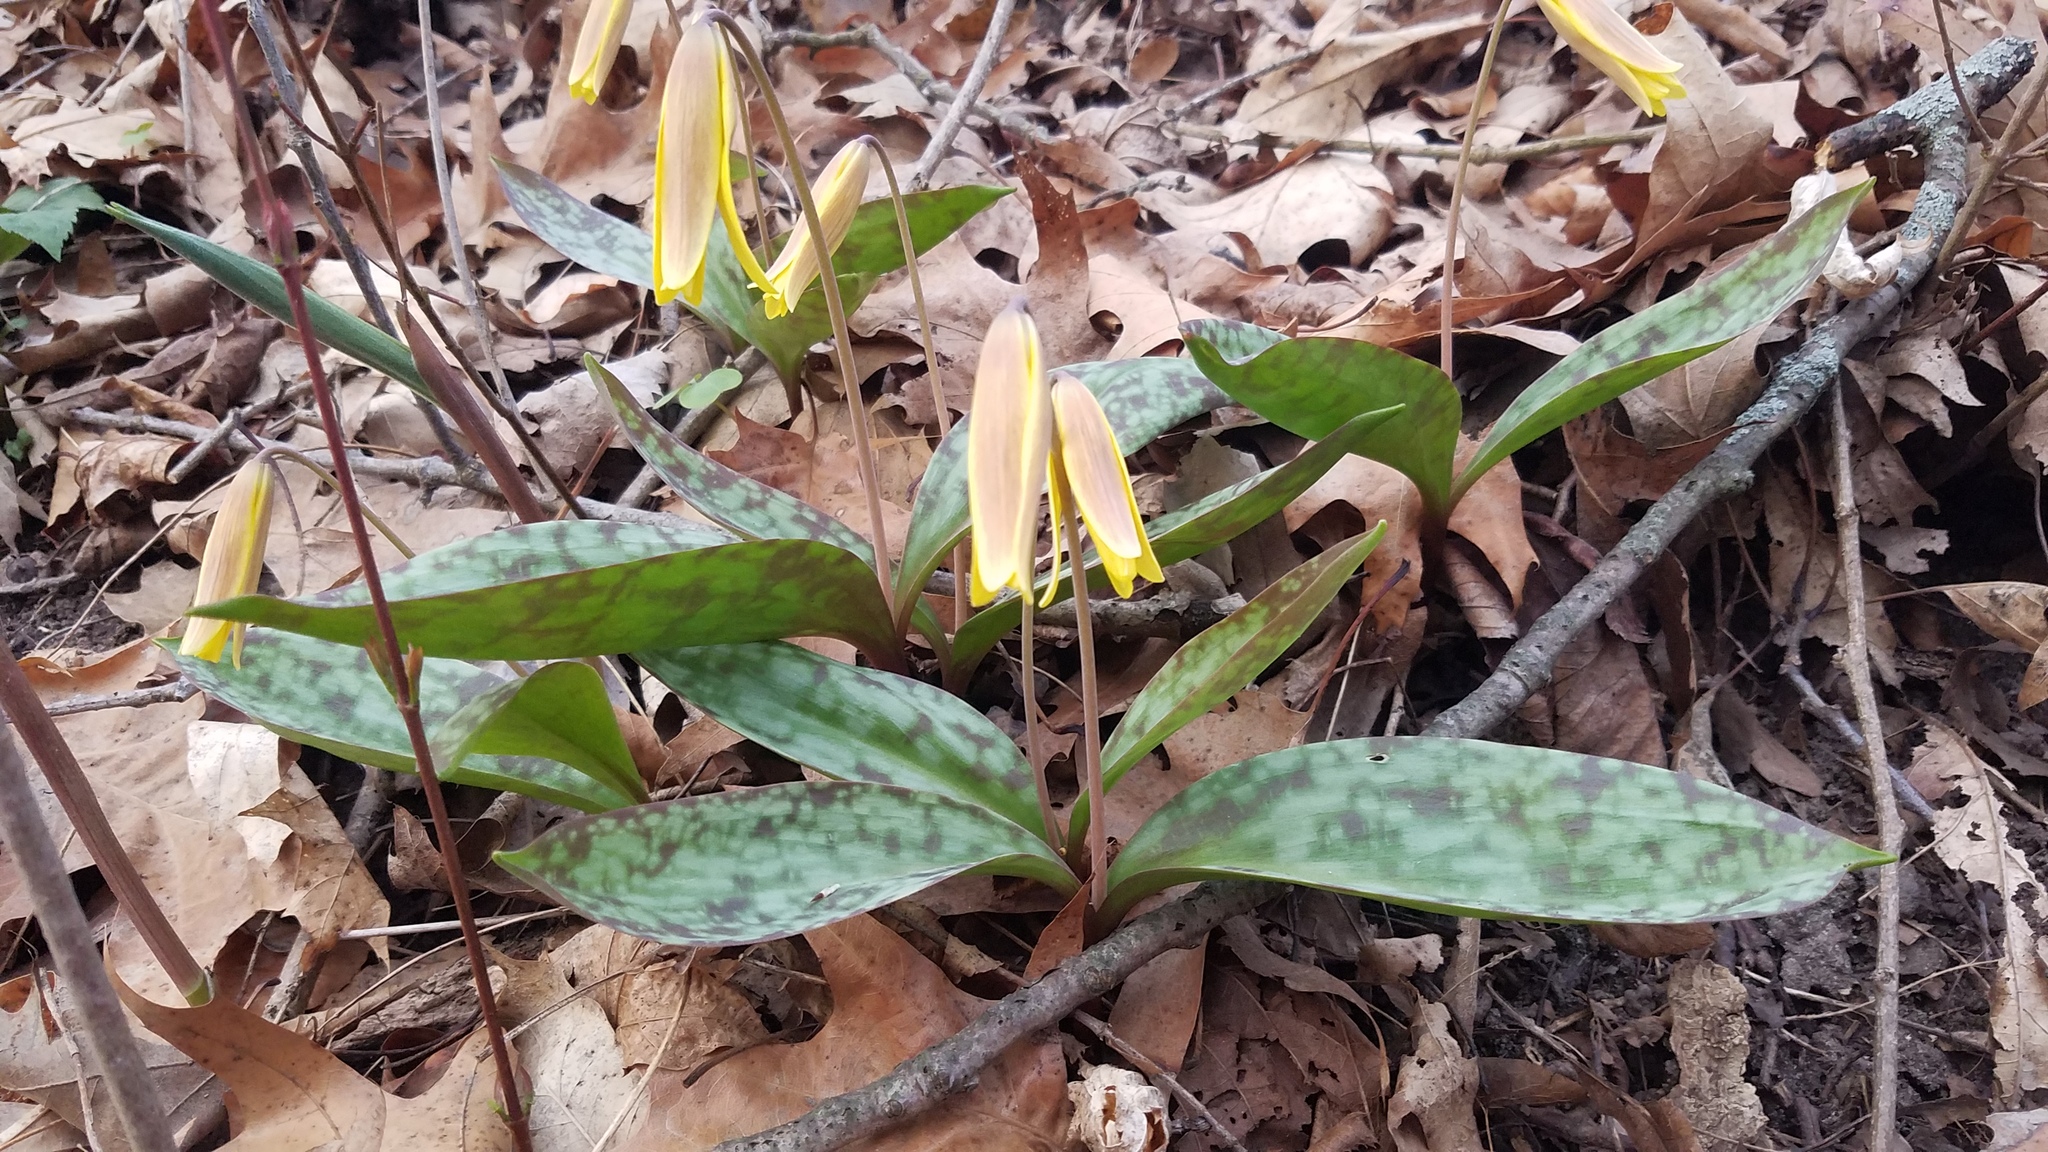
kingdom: Plantae
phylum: Tracheophyta
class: Liliopsida
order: Liliales
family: Liliaceae
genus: Erythronium
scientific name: Erythronium americanum
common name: Yellow adder's-tongue
